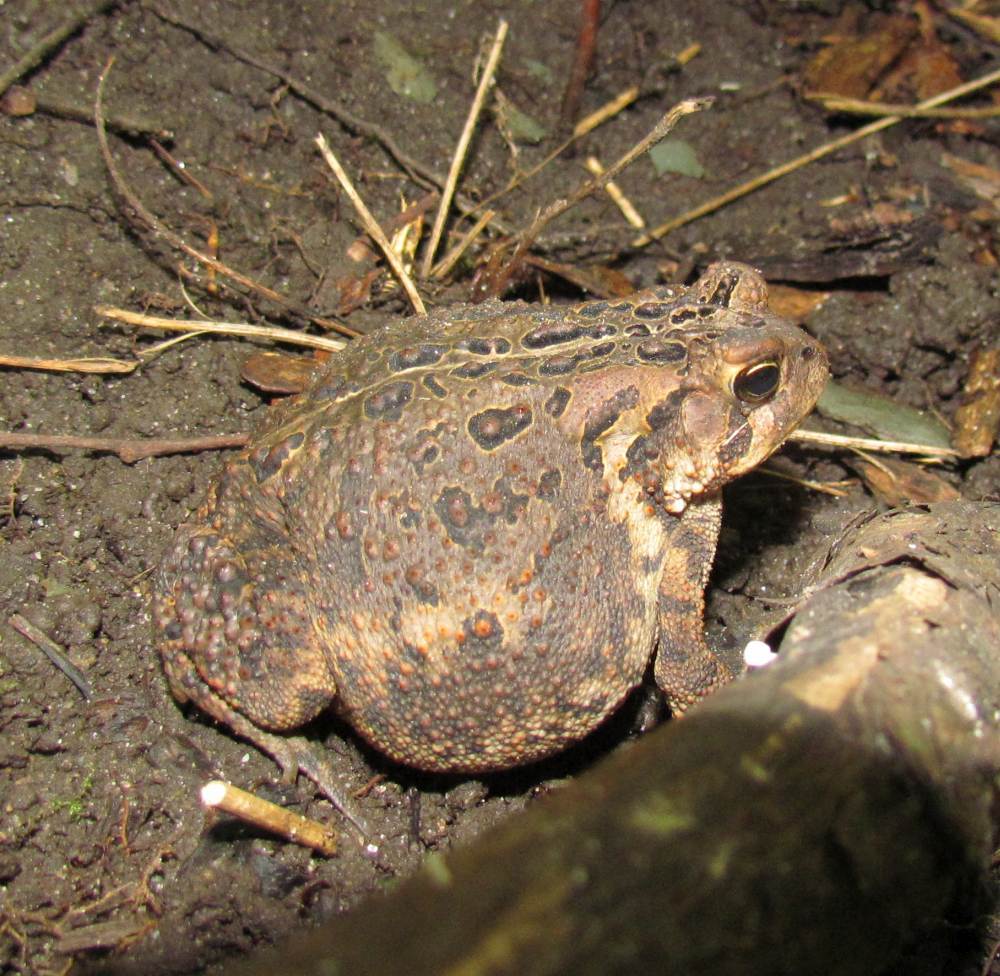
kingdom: Animalia
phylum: Chordata
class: Amphibia
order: Anura
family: Bufonidae
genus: Anaxyrus
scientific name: Anaxyrus americanus
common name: American toad
